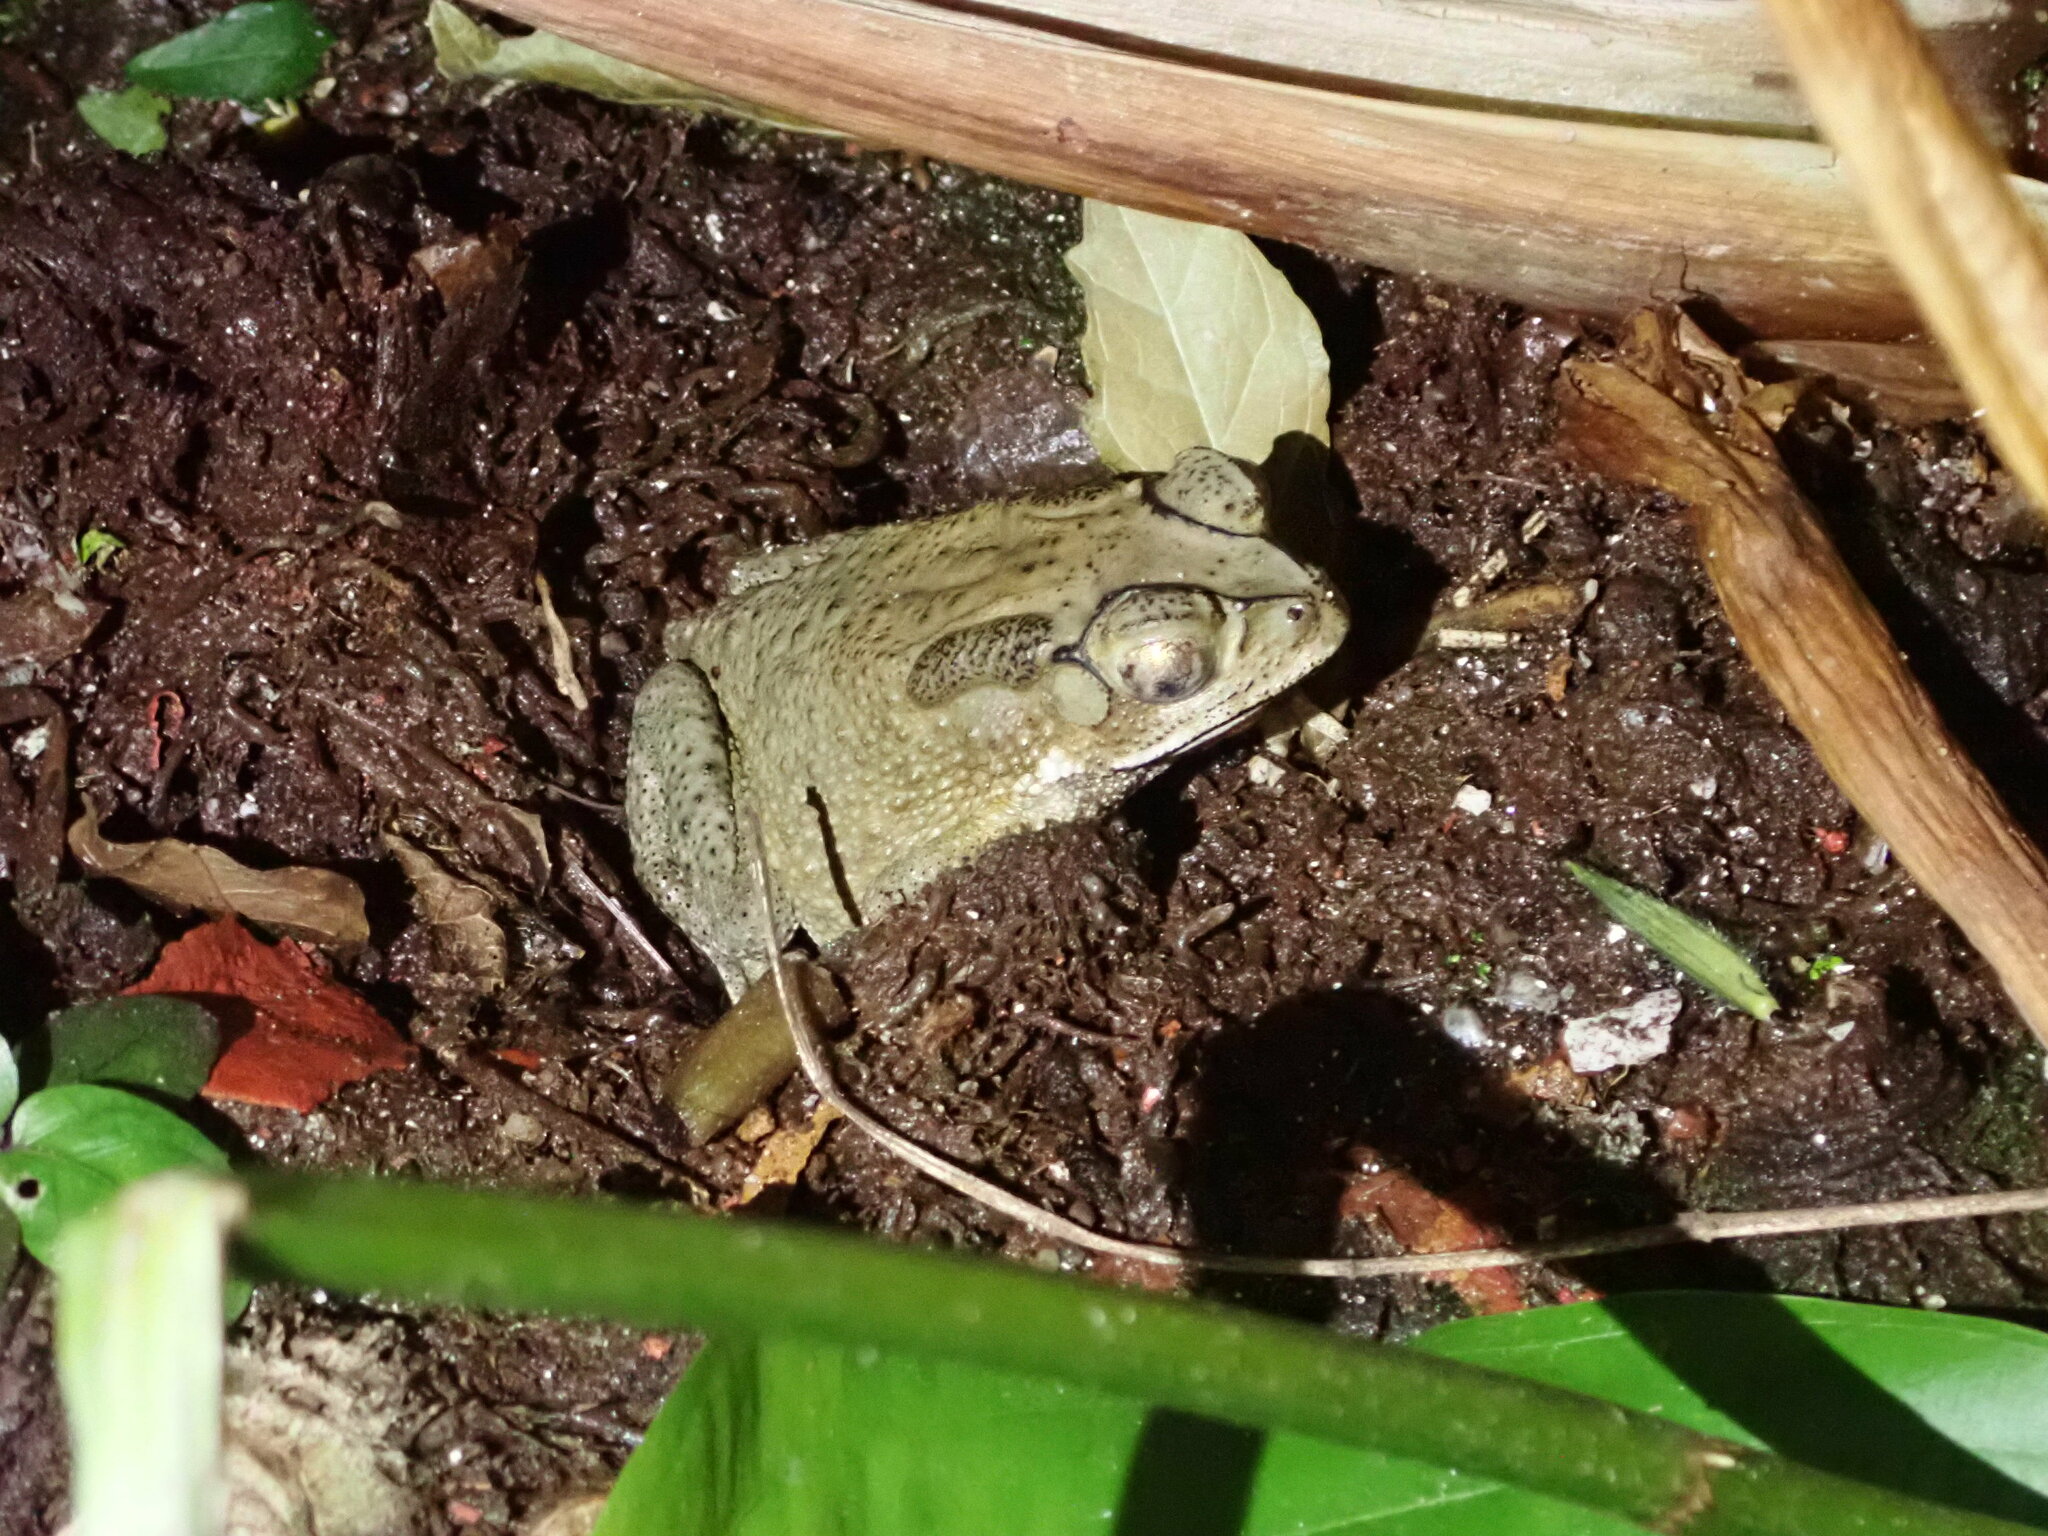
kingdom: Animalia
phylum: Chordata
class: Amphibia
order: Anura
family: Bufonidae
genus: Duttaphrynus
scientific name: Duttaphrynus melanostictus
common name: Common sunda toad
